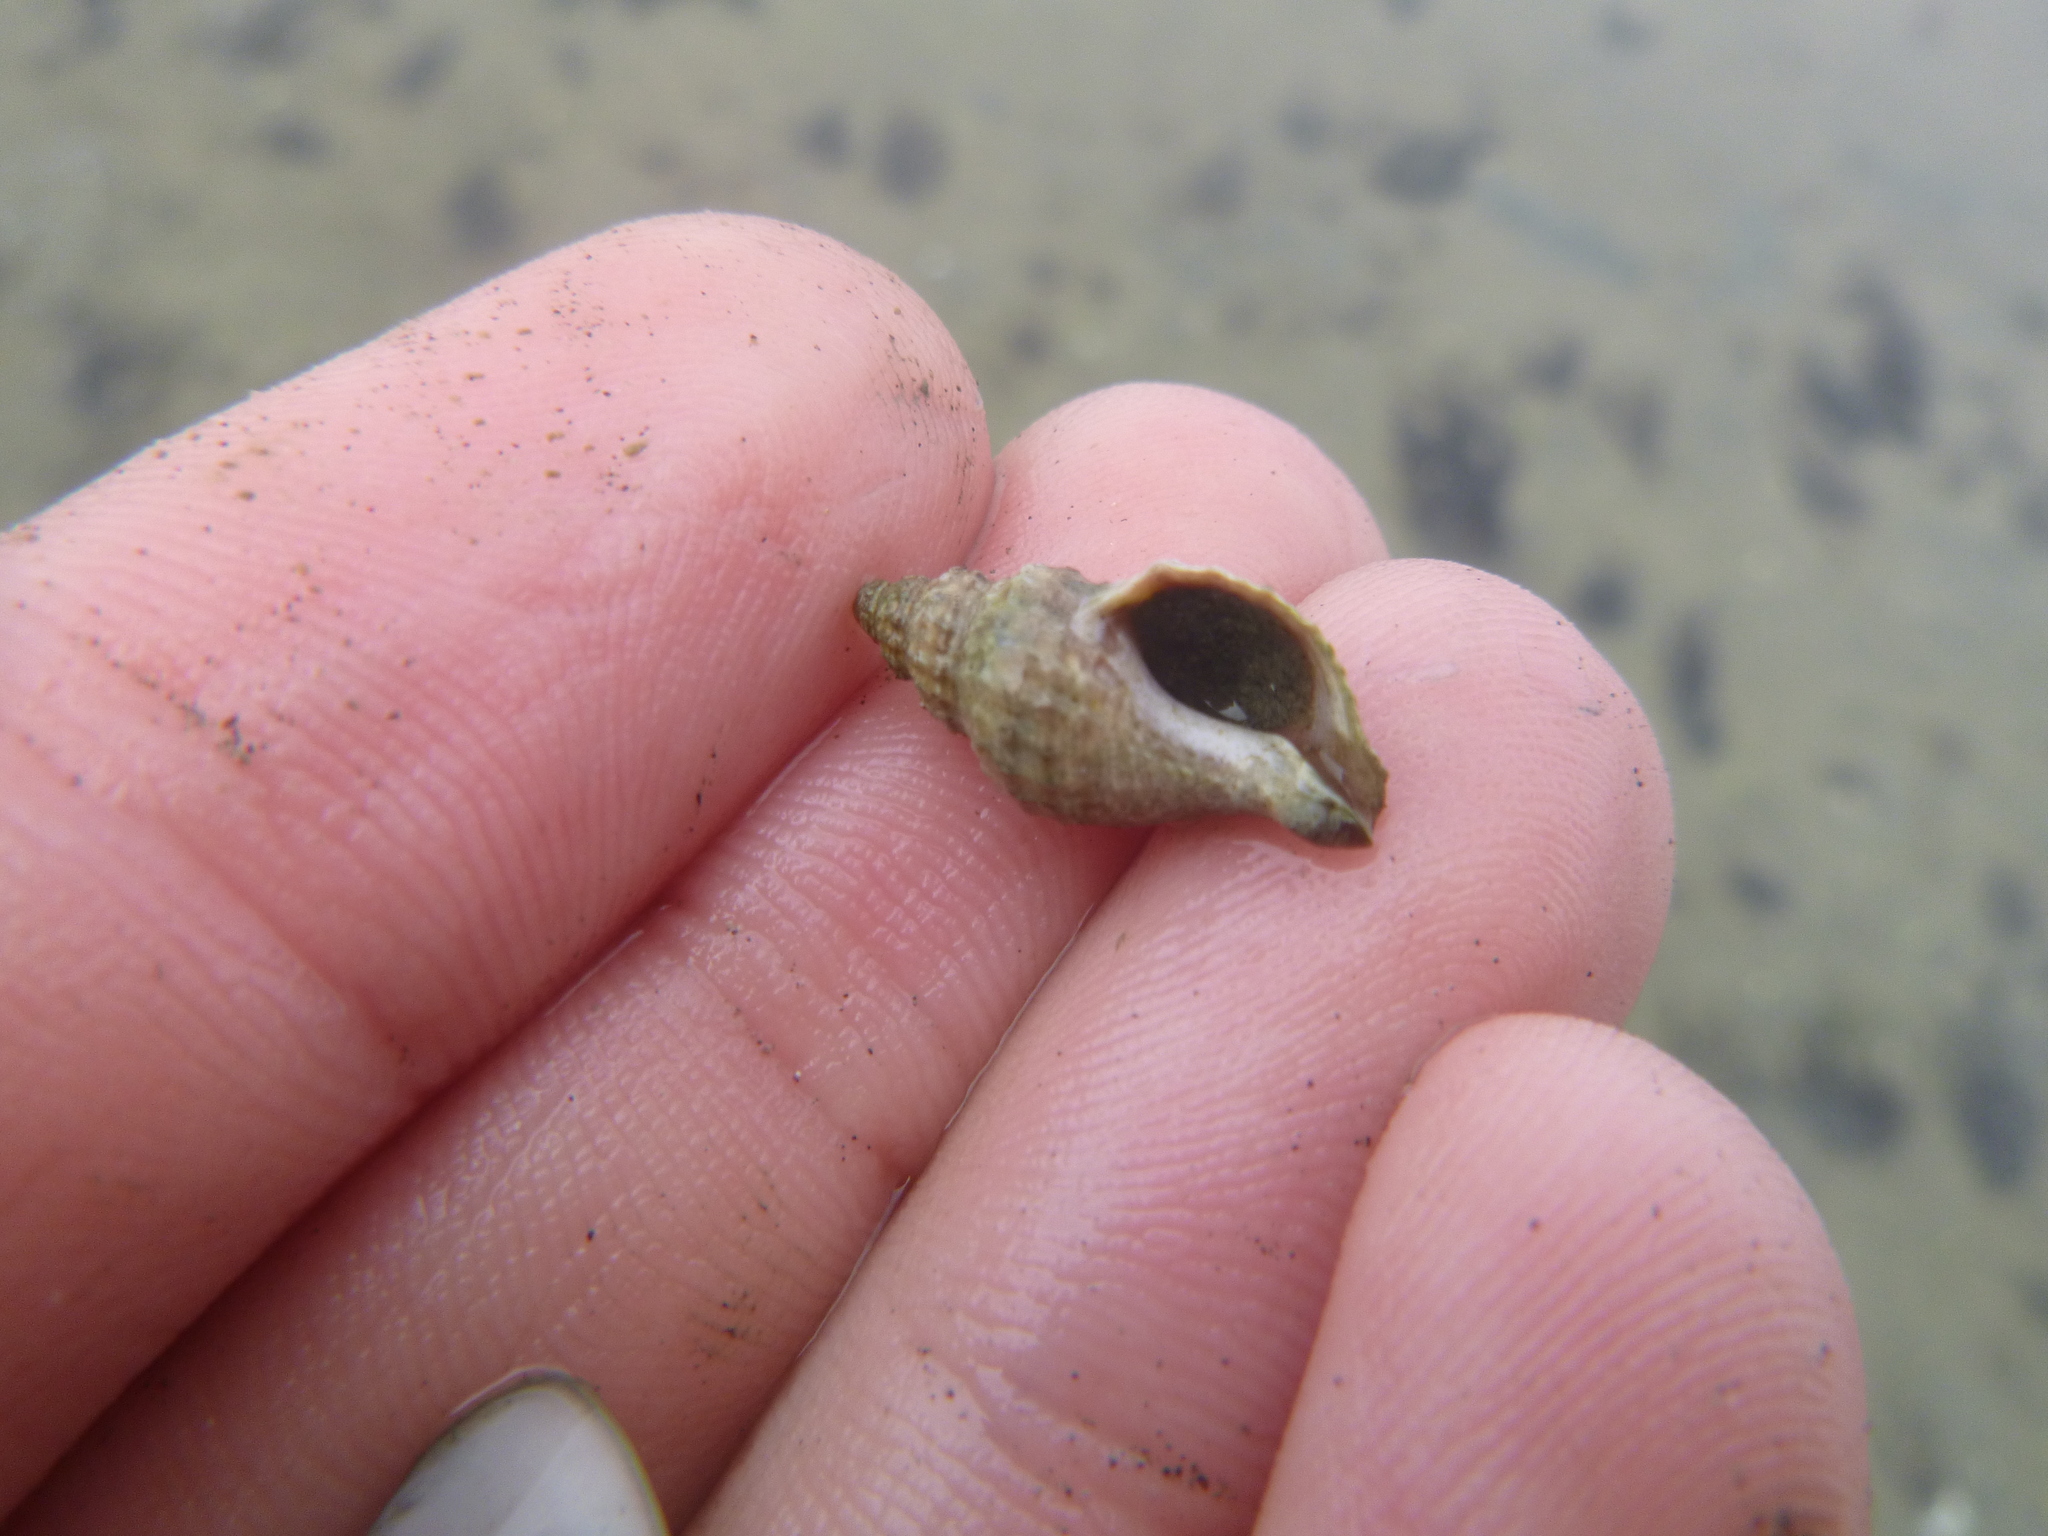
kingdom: Animalia
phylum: Mollusca
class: Gastropoda
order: Neogastropoda
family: Muricidae
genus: Xymene
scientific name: Xymene plebeius
